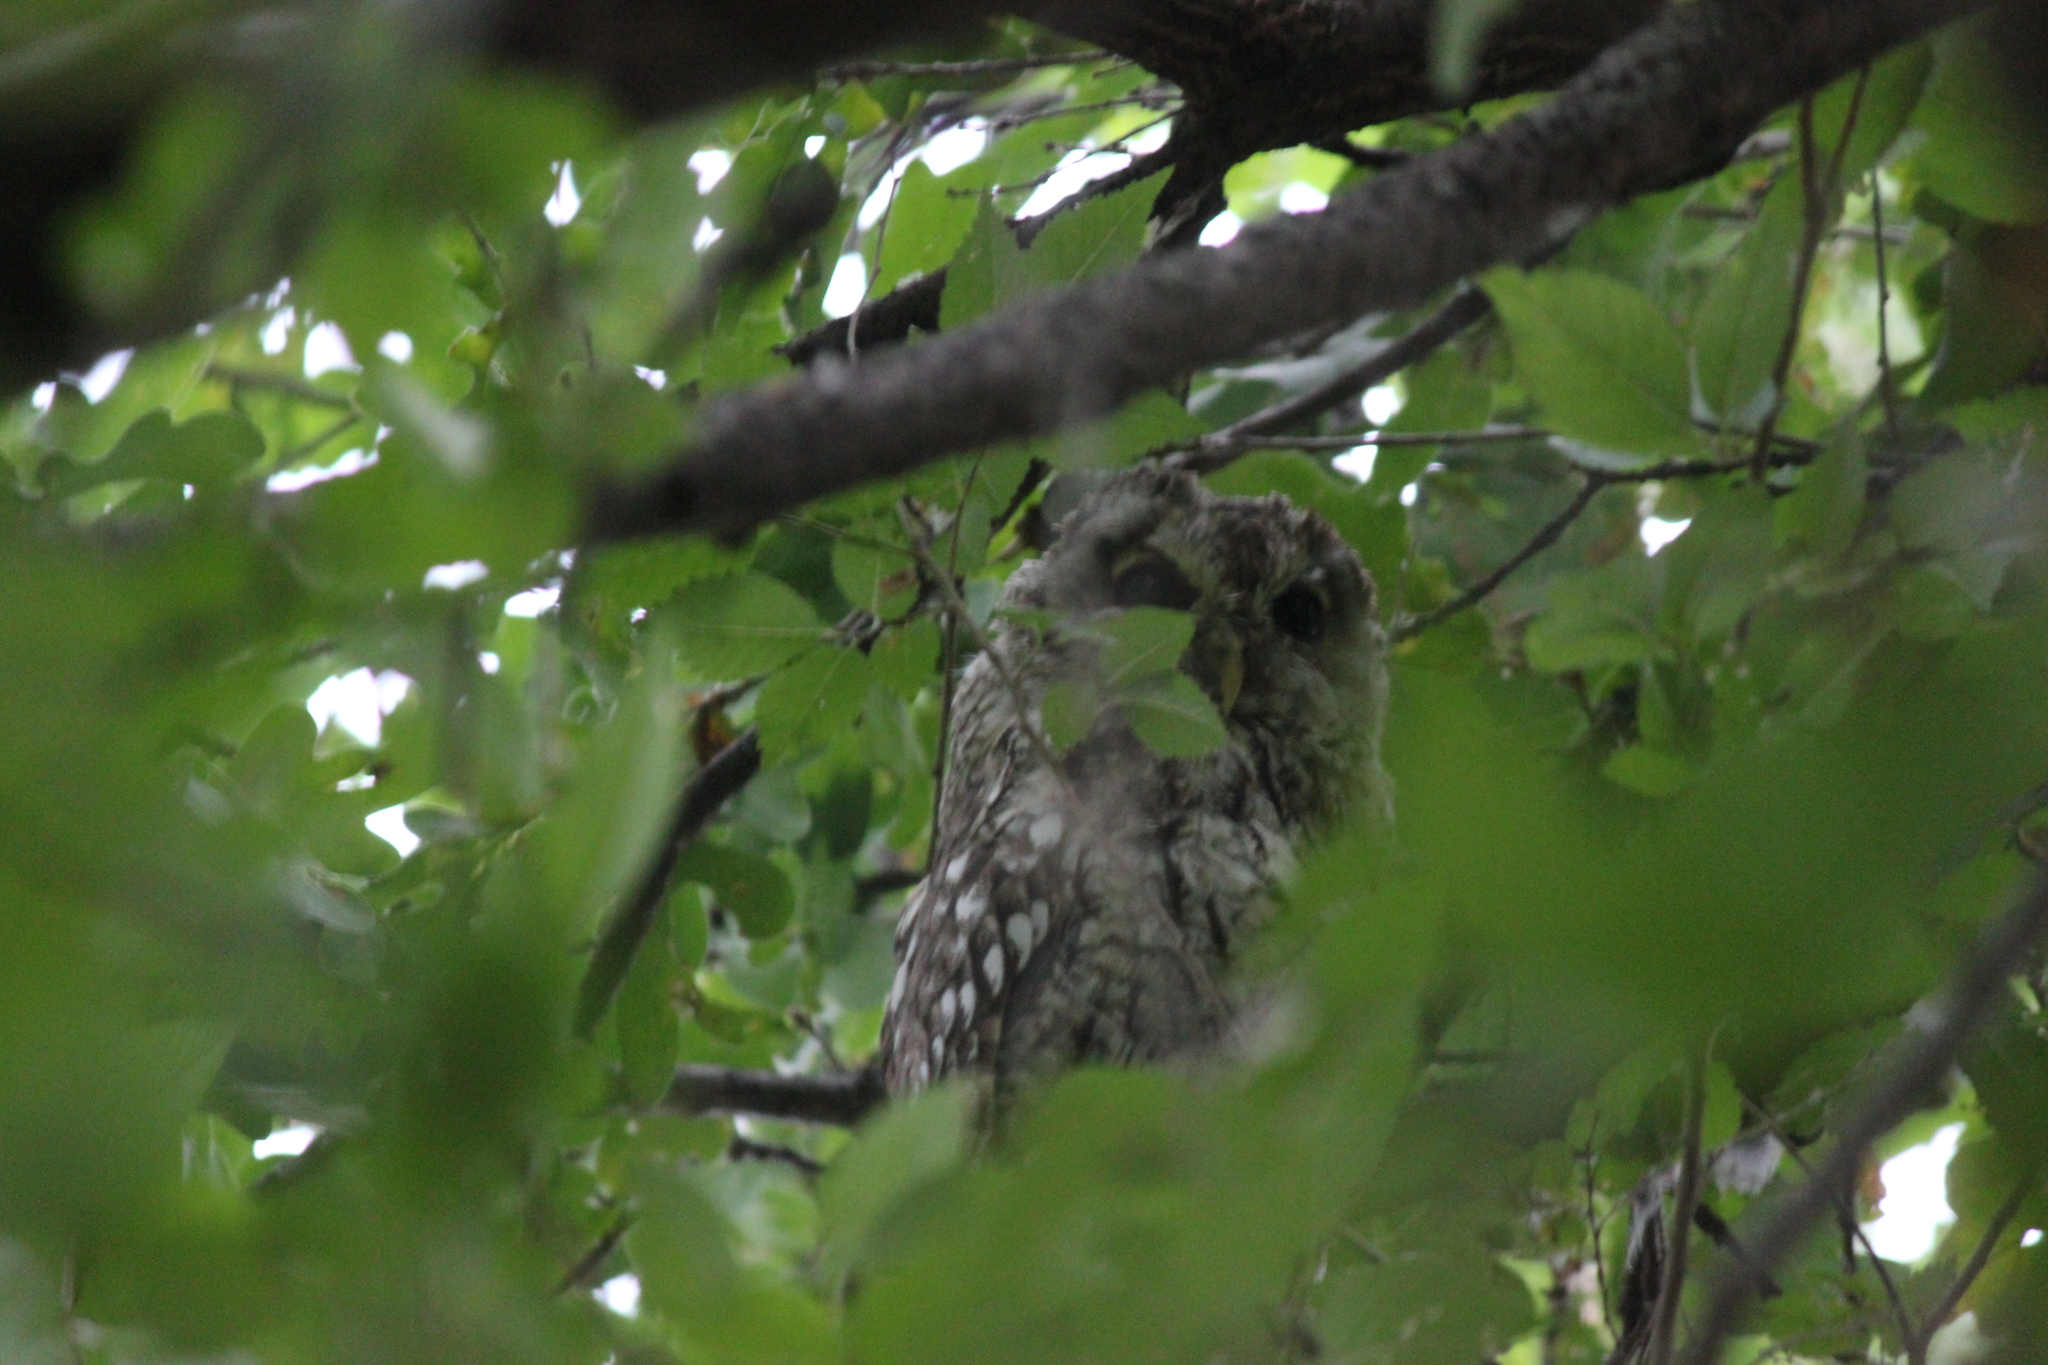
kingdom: Animalia
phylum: Chordata
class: Aves
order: Strigiformes
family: Strigidae
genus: Strix
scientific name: Strix aluco
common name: Tawny owl
